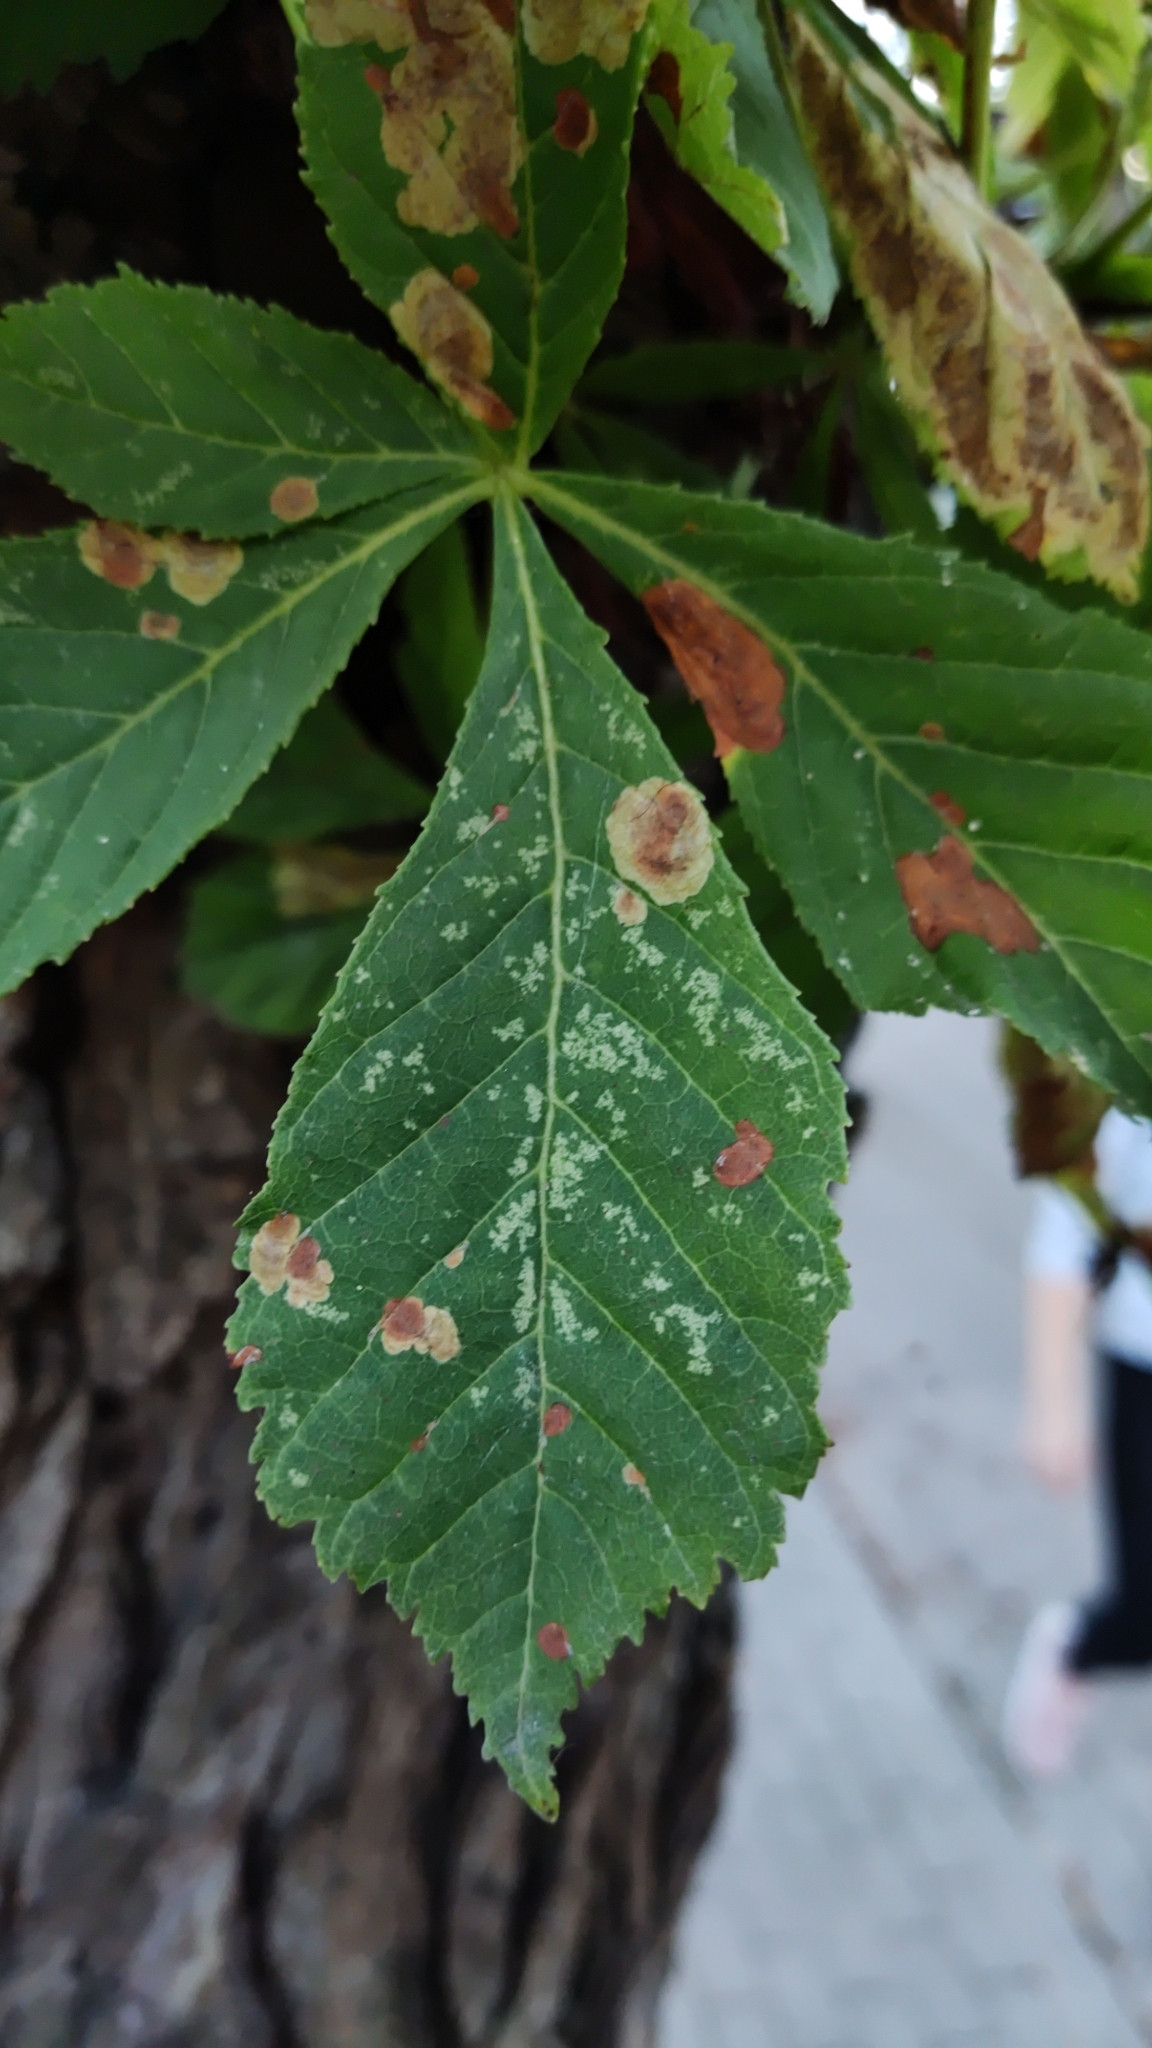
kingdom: Animalia
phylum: Arthropoda
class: Insecta
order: Lepidoptera
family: Gracillariidae
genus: Cameraria
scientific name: Cameraria ohridella
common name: Horse-chestnut leaf-miner
